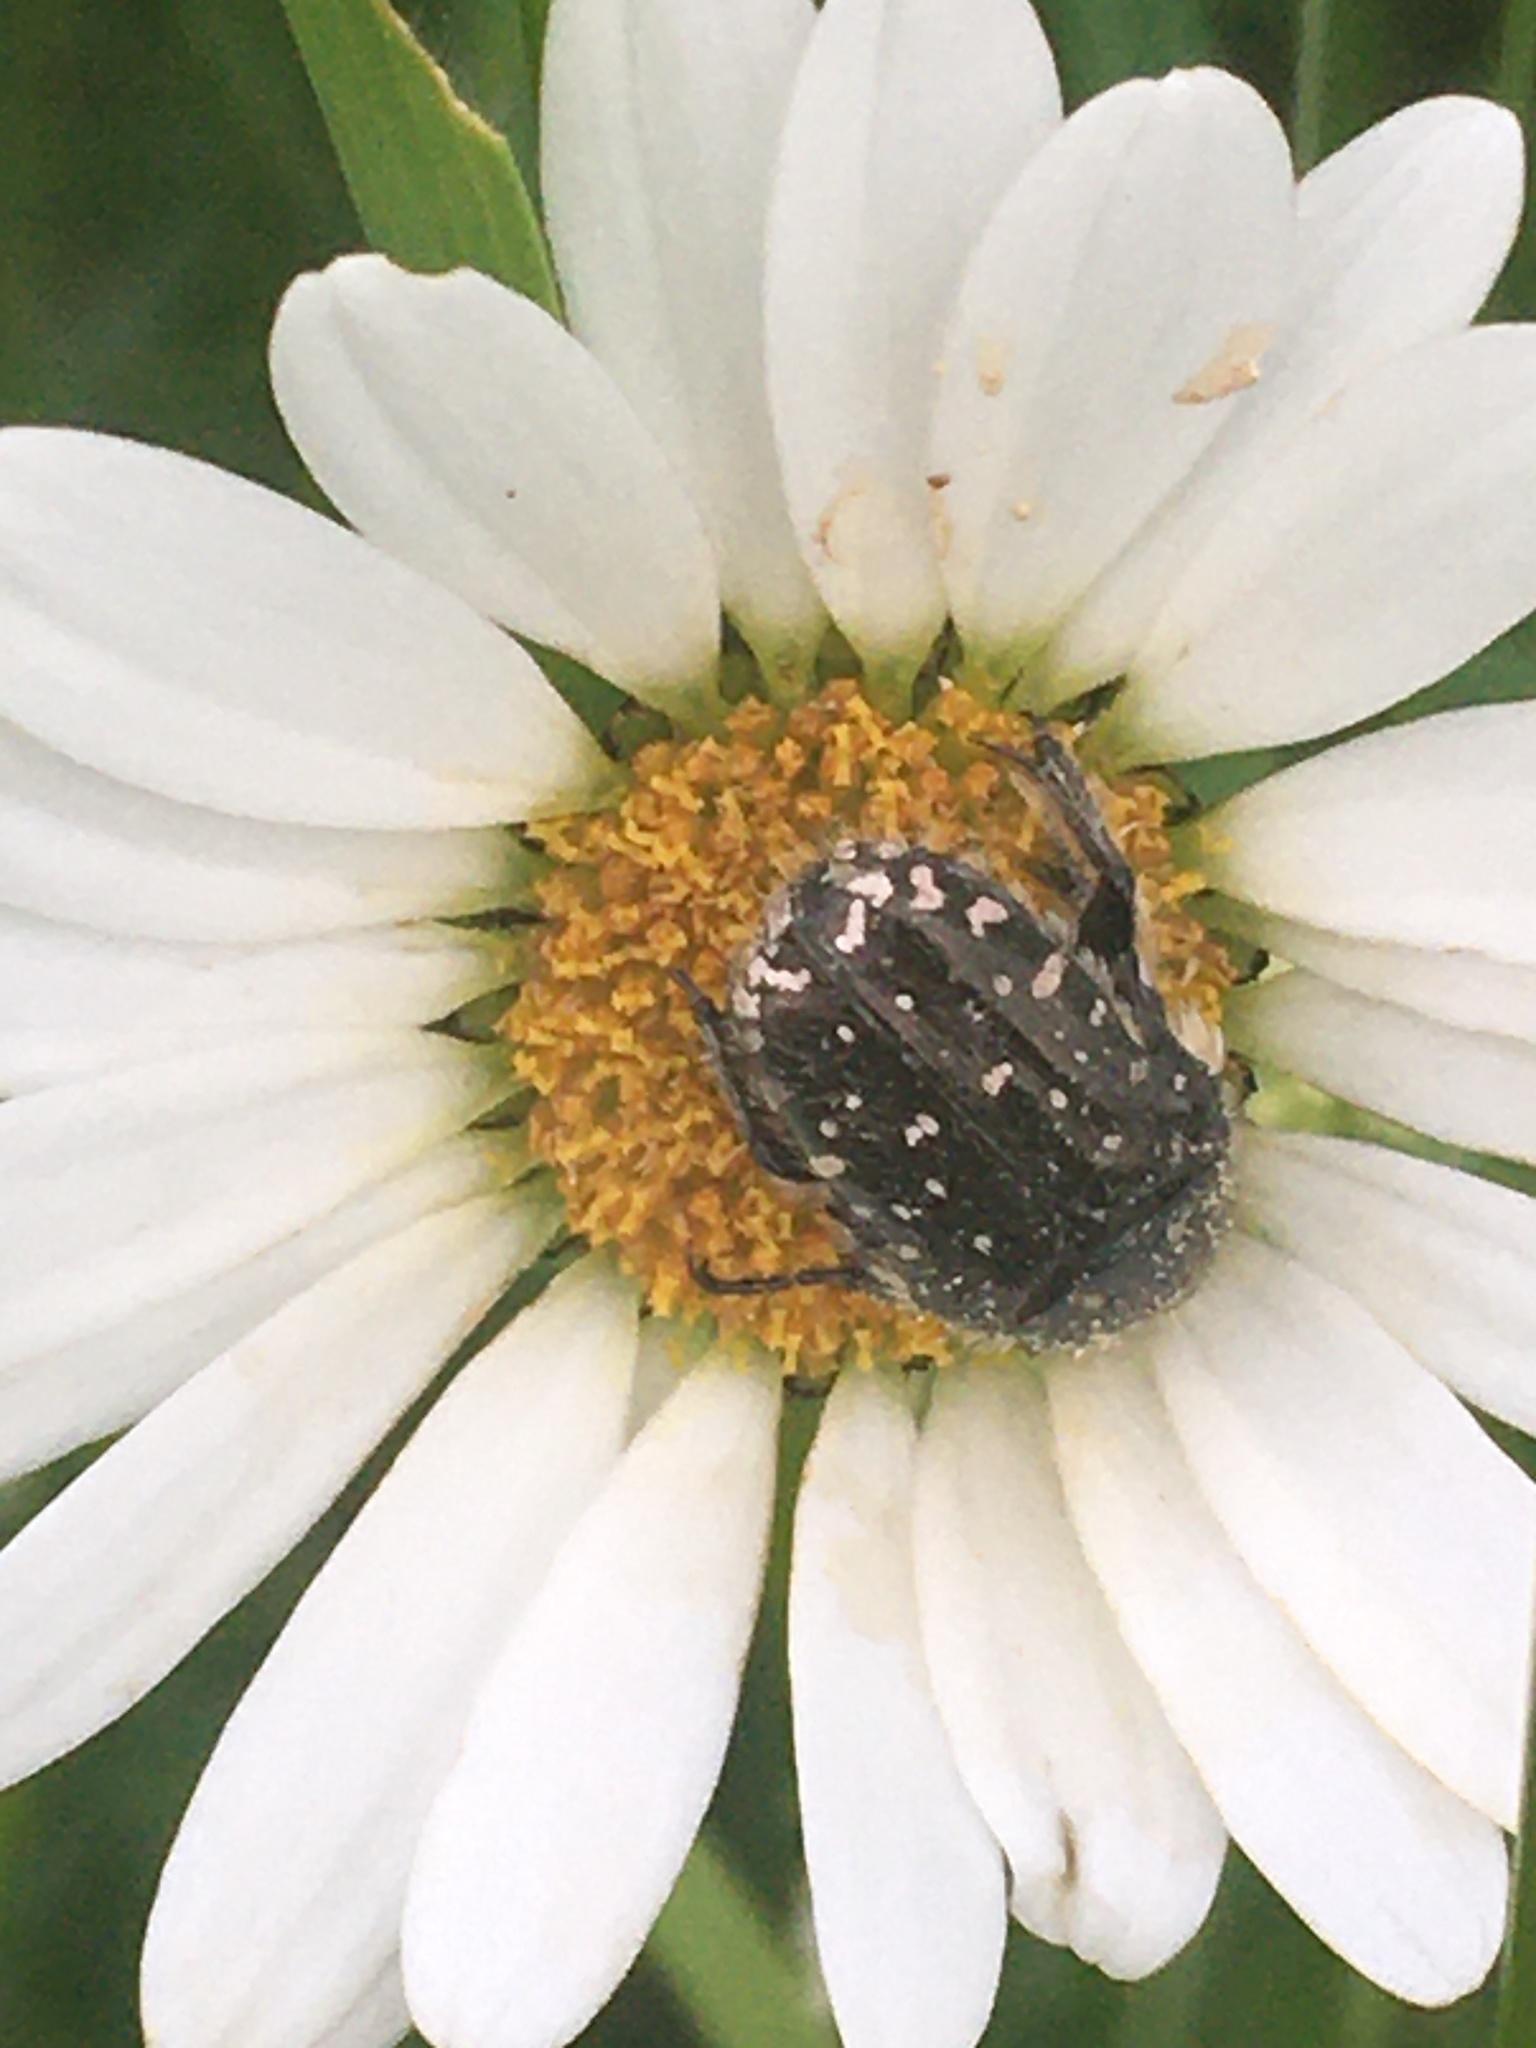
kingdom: Animalia
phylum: Arthropoda
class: Insecta
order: Coleoptera
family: Scarabaeidae
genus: Oxythyrea
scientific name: Oxythyrea funesta
